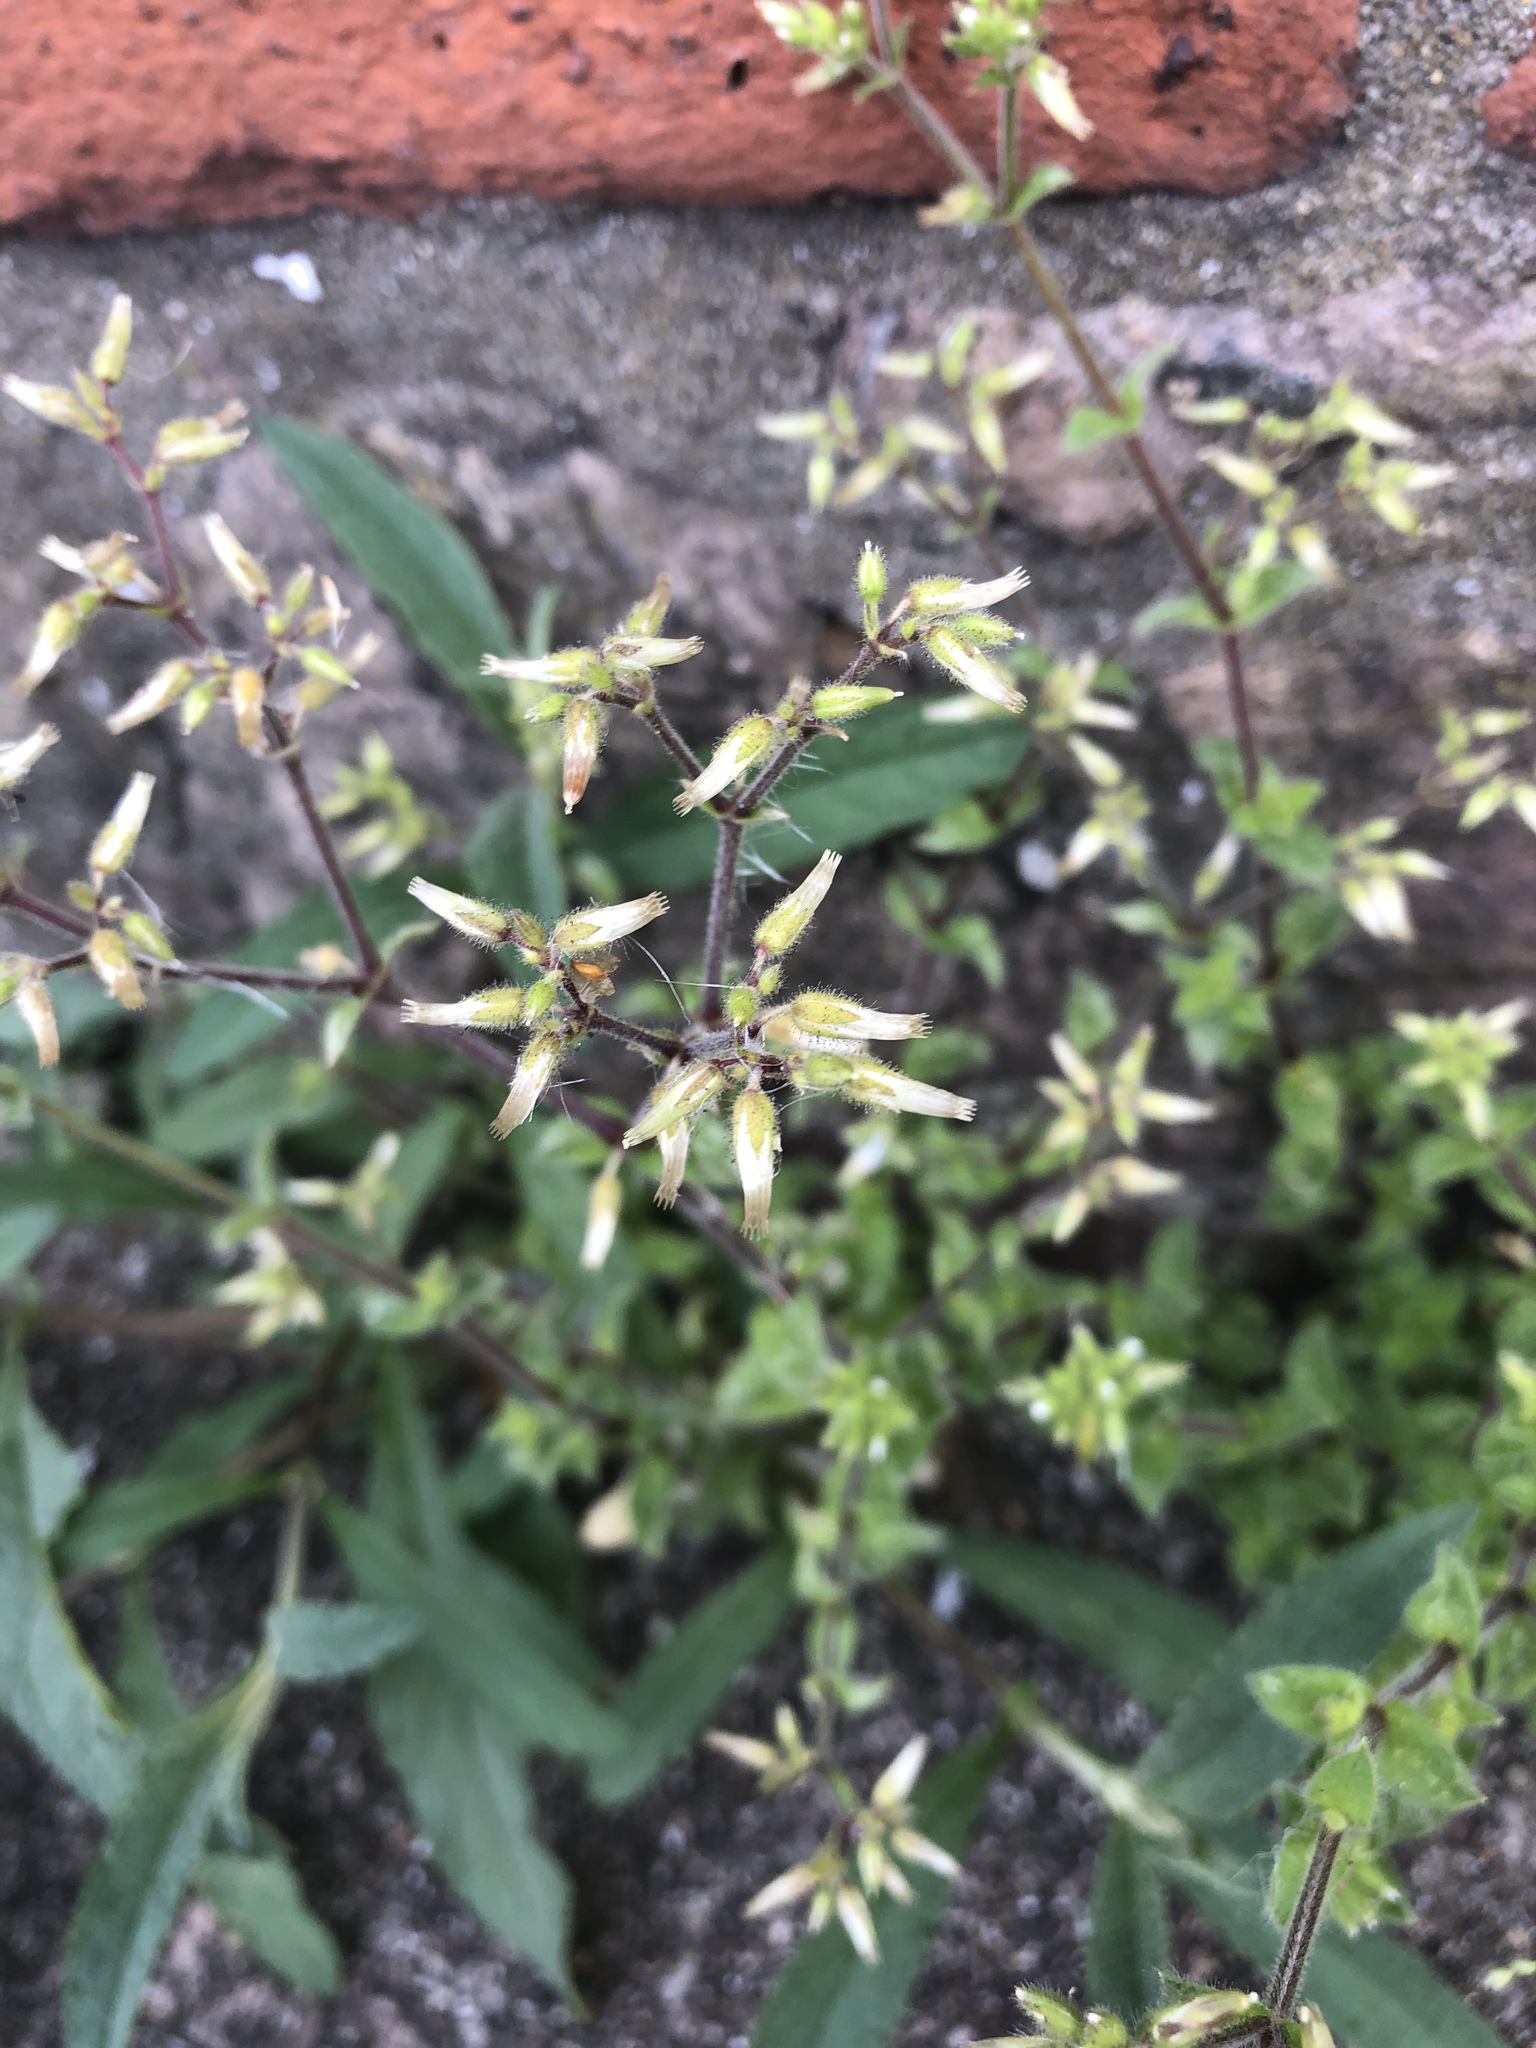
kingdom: Plantae
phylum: Tracheophyta
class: Magnoliopsida
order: Caryophyllales
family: Caryophyllaceae
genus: Cerastium
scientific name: Cerastium glomeratum
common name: Sticky chickweed
